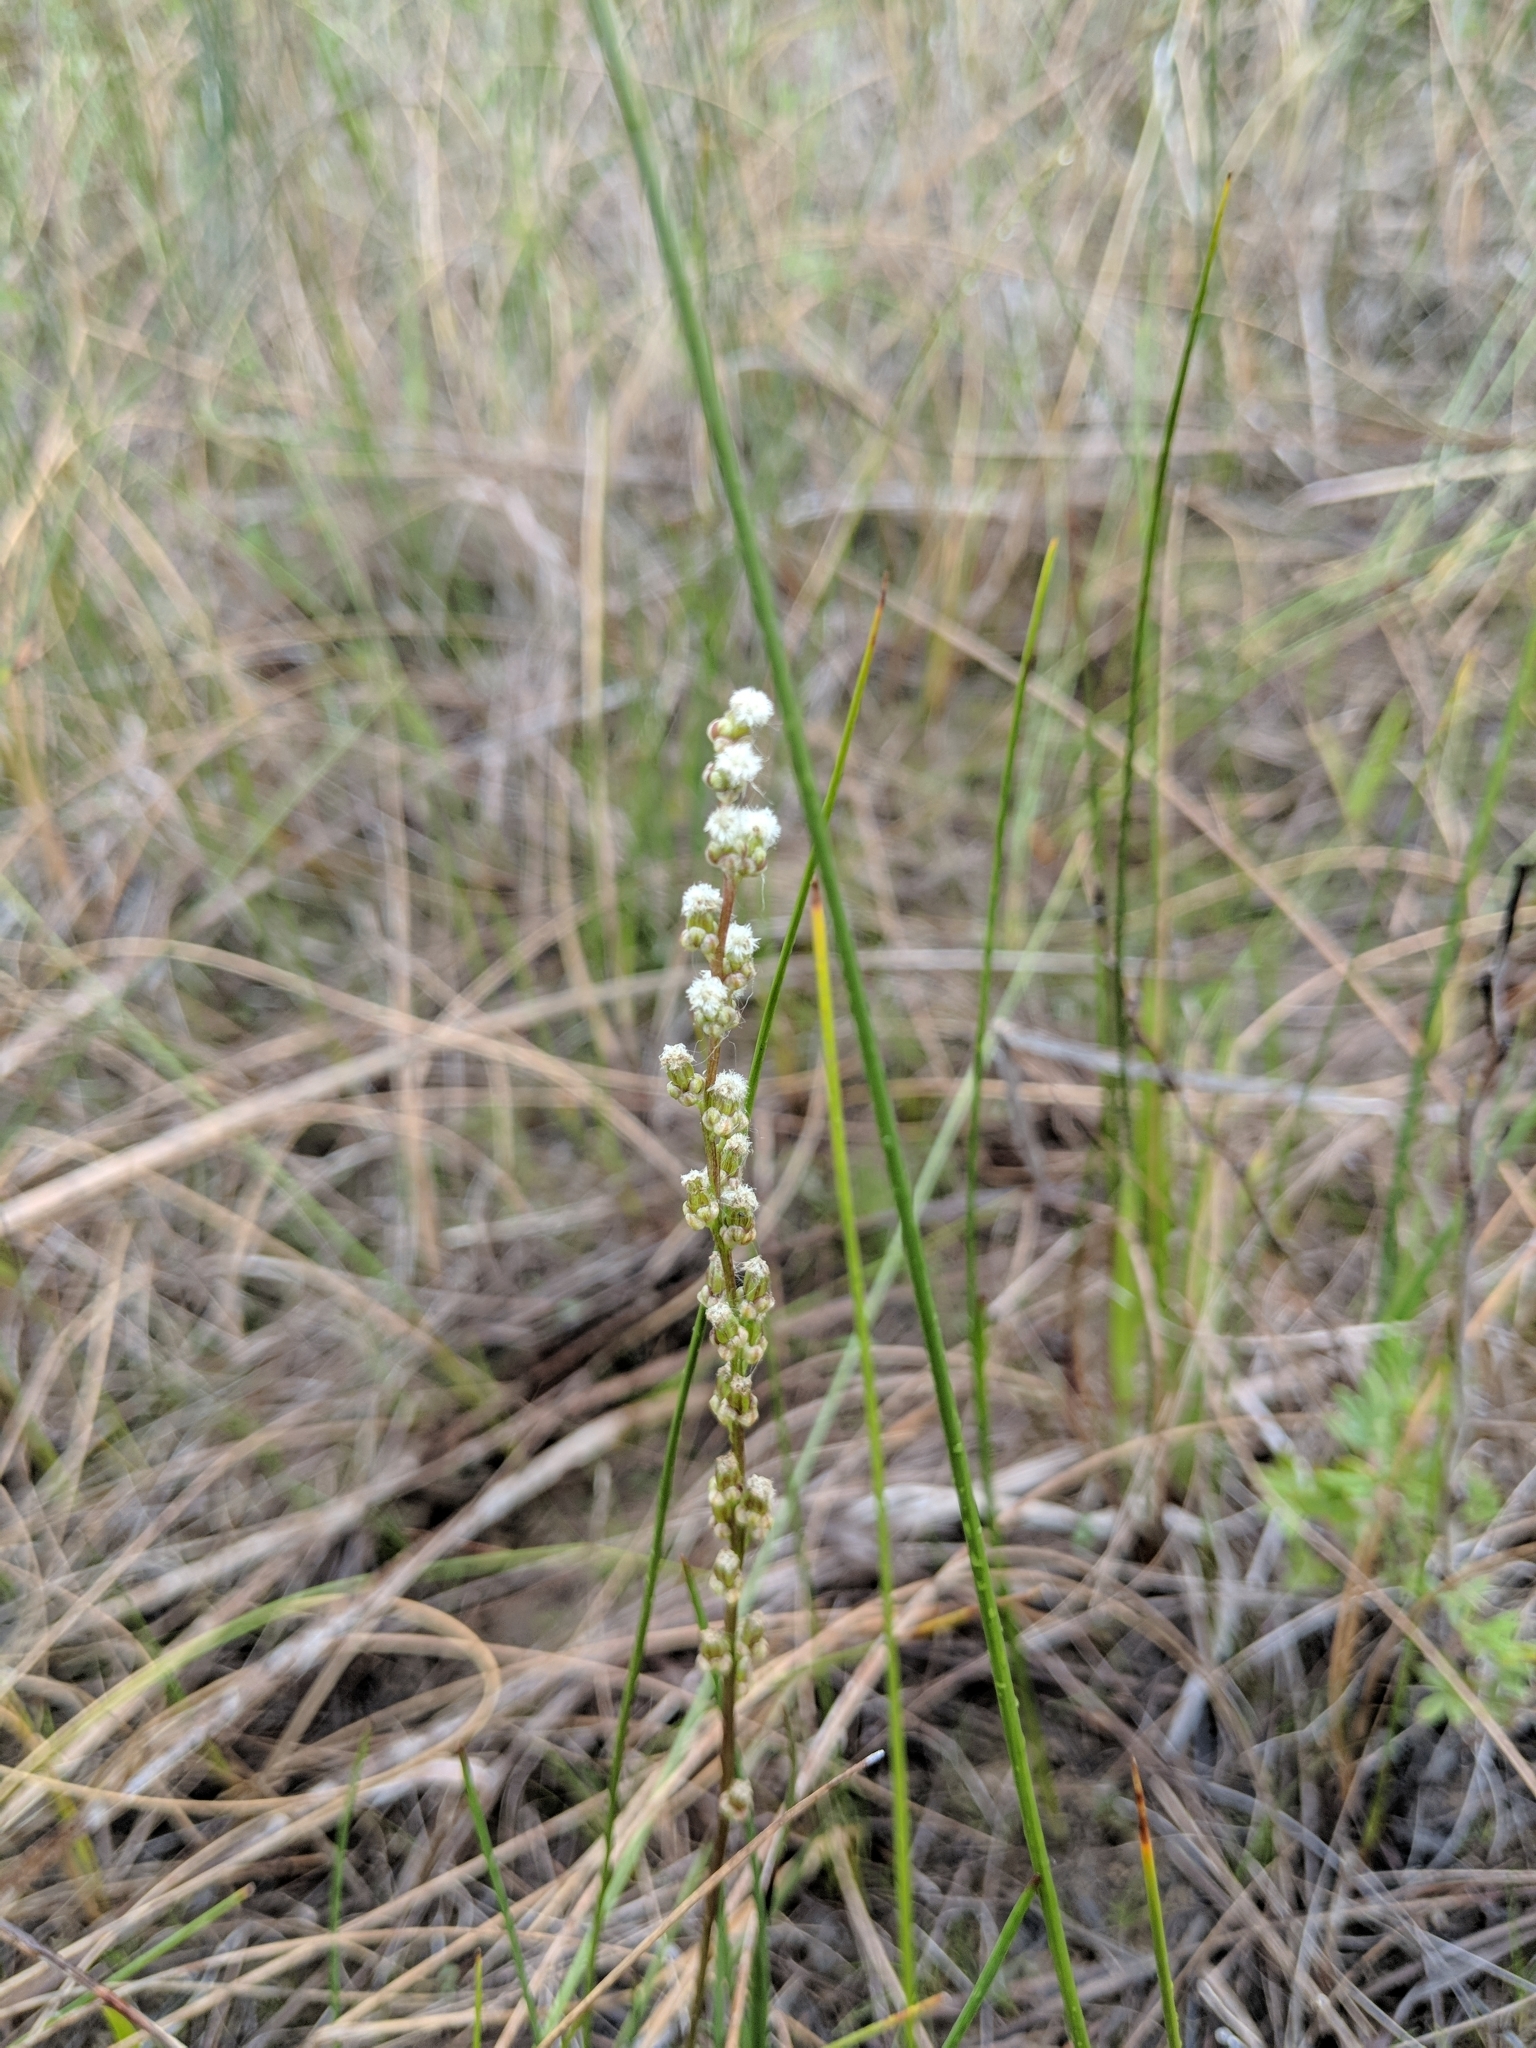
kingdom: Plantae
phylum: Tracheophyta
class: Liliopsida
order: Alismatales
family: Juncaginaceae
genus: Triglochin
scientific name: Triglochin maritima
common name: Sea arrowgrass
